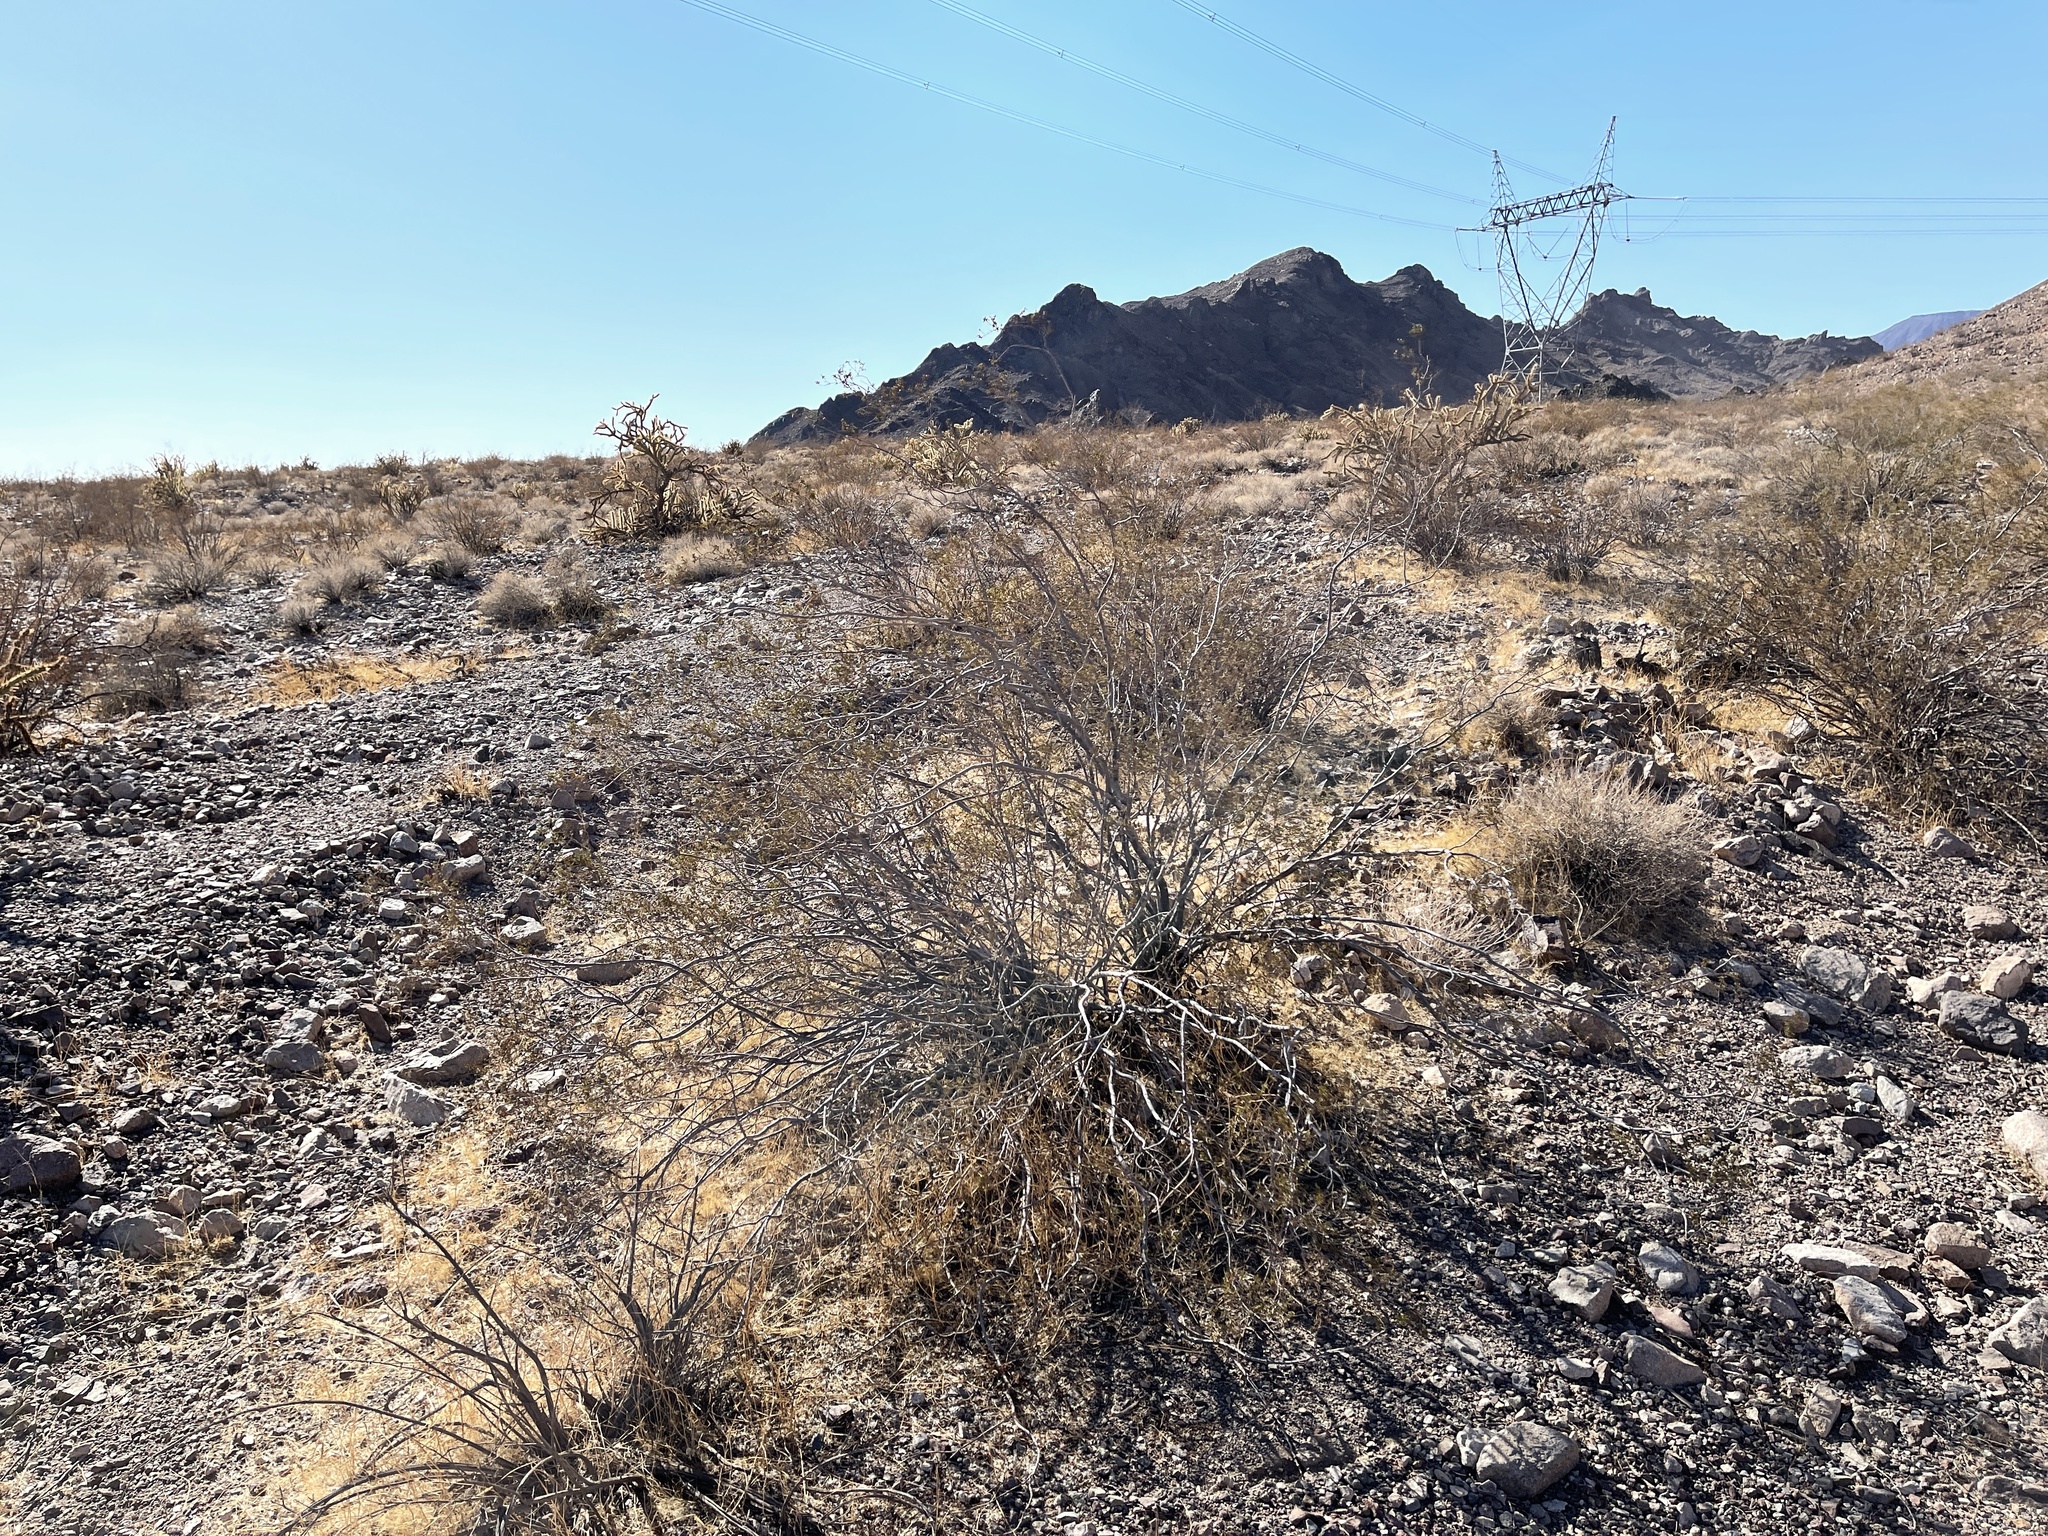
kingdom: Plantae
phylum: Tracheophyta
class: Magnoliopsida
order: Zygophyllales
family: Zygophyllaceae
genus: Larrea
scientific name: Larrea tridentata
